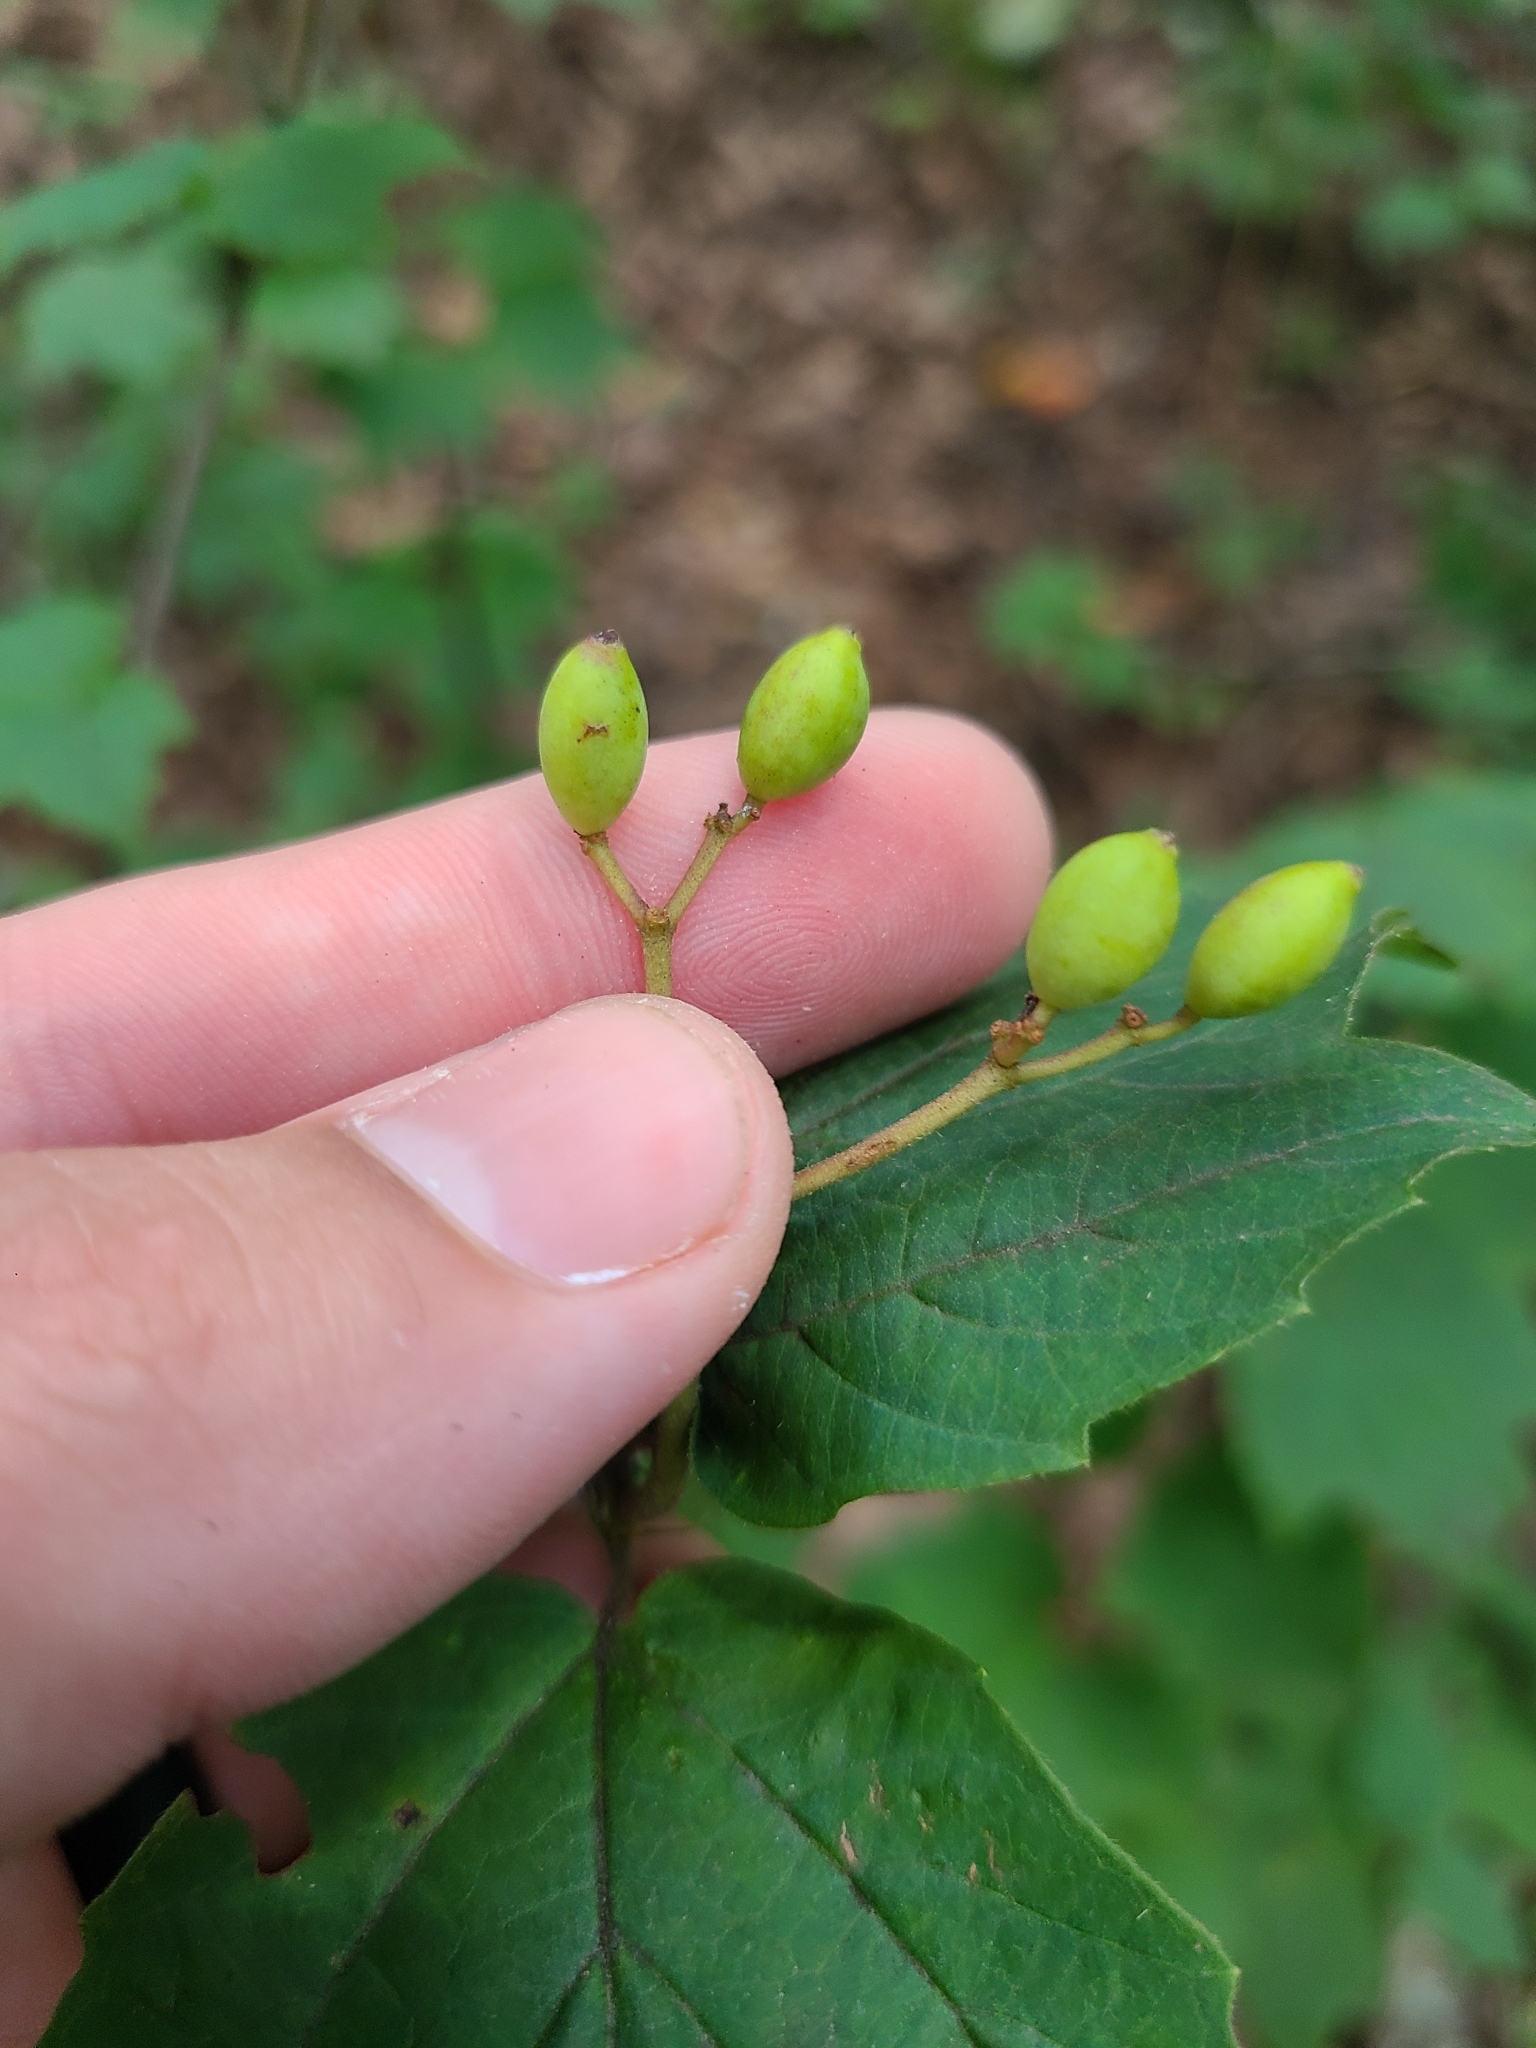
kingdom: Plantae
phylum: Tracheophyta
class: Magnoliopsida
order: Dipsacales
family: Viburnaceae
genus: Viburnum
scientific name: Viburnum acerifolium
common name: Dockmackie
